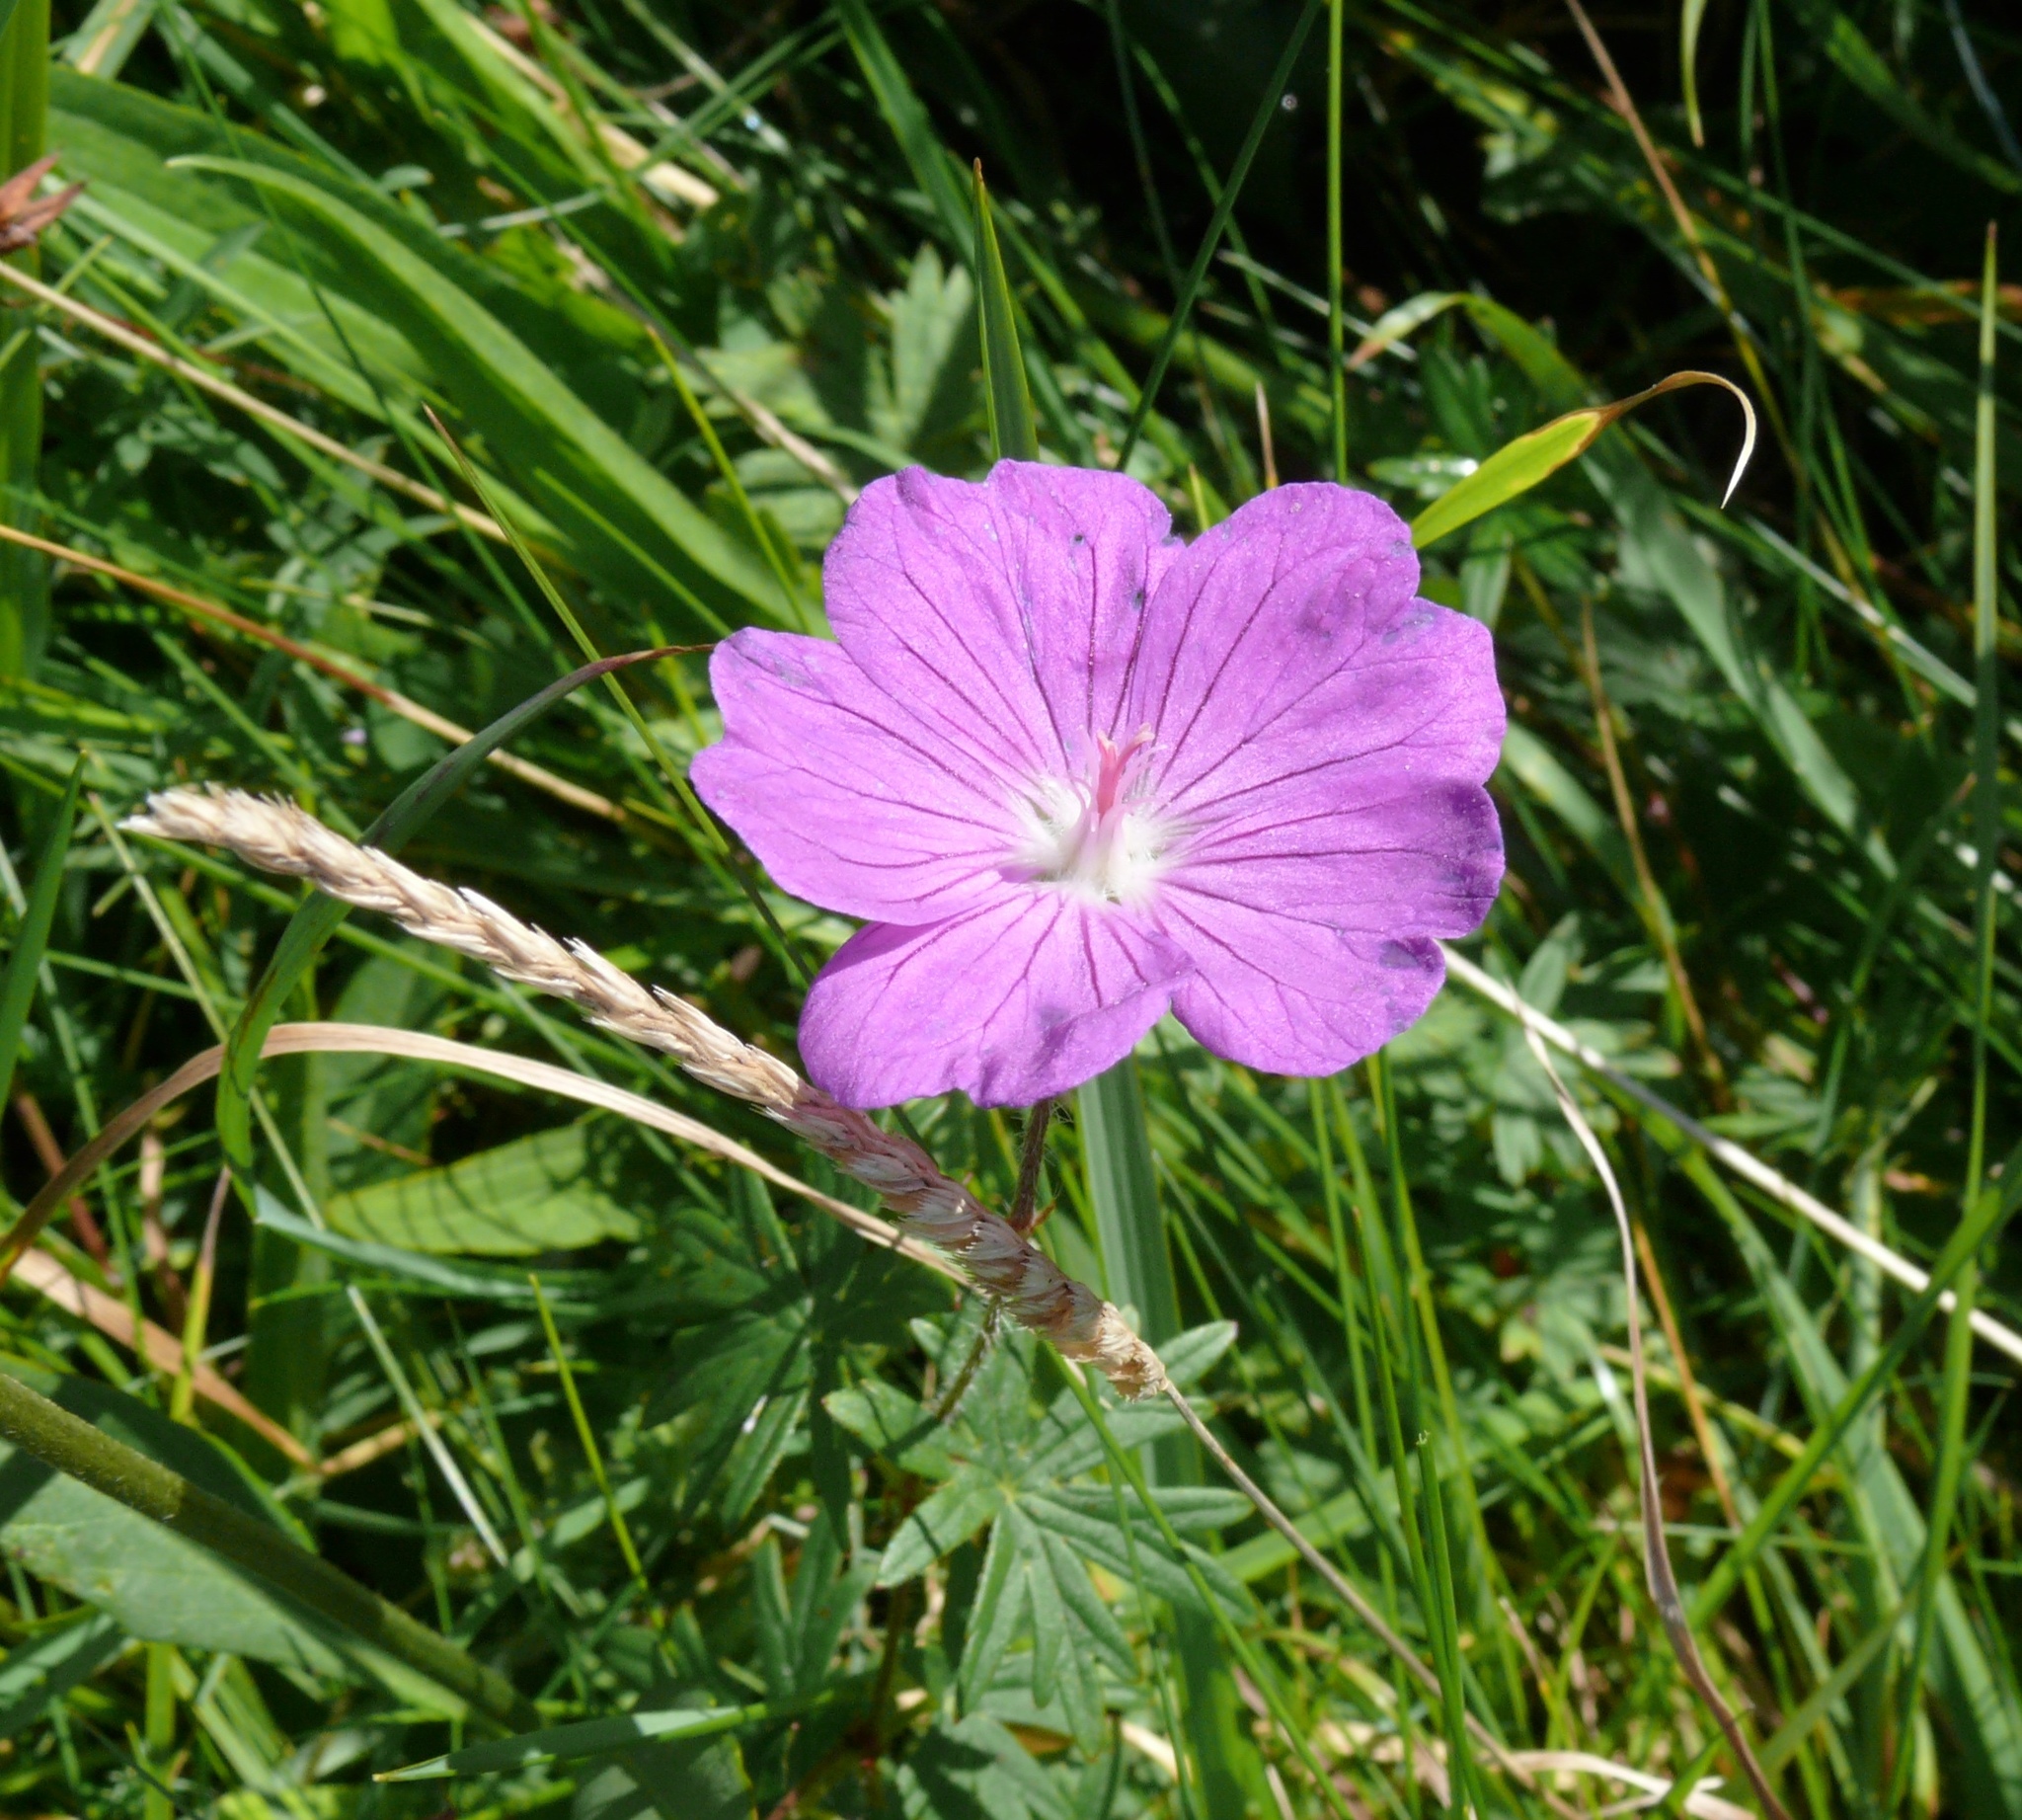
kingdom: Plantae
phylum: Tracheophyta
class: Magnoliopsida
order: Geraniales
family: Geraniaceae
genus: Geranium
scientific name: Geranium sanguineum
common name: Bloody crane's-bill
